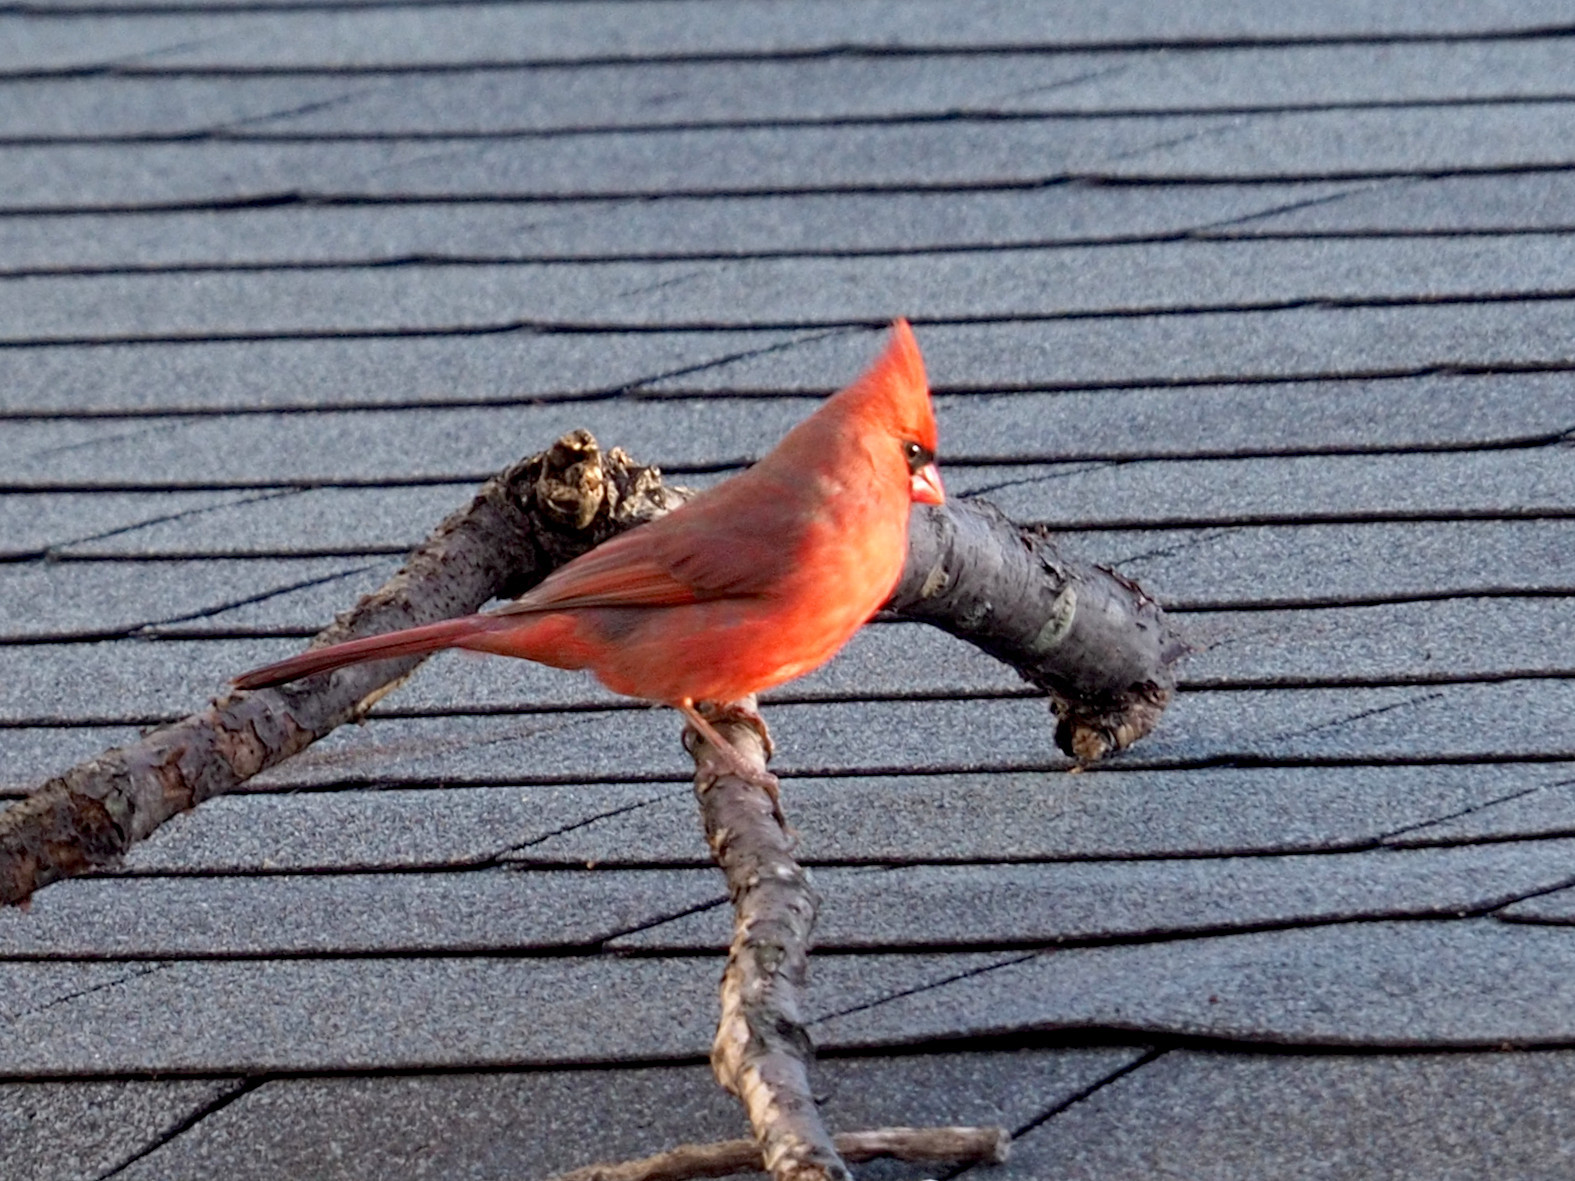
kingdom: Animalia
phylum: Chordata
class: Aves
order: Passeriformes
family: Cardinalidae
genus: Cardinalis
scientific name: Cardinalis cardinalis
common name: Northern cardinal
